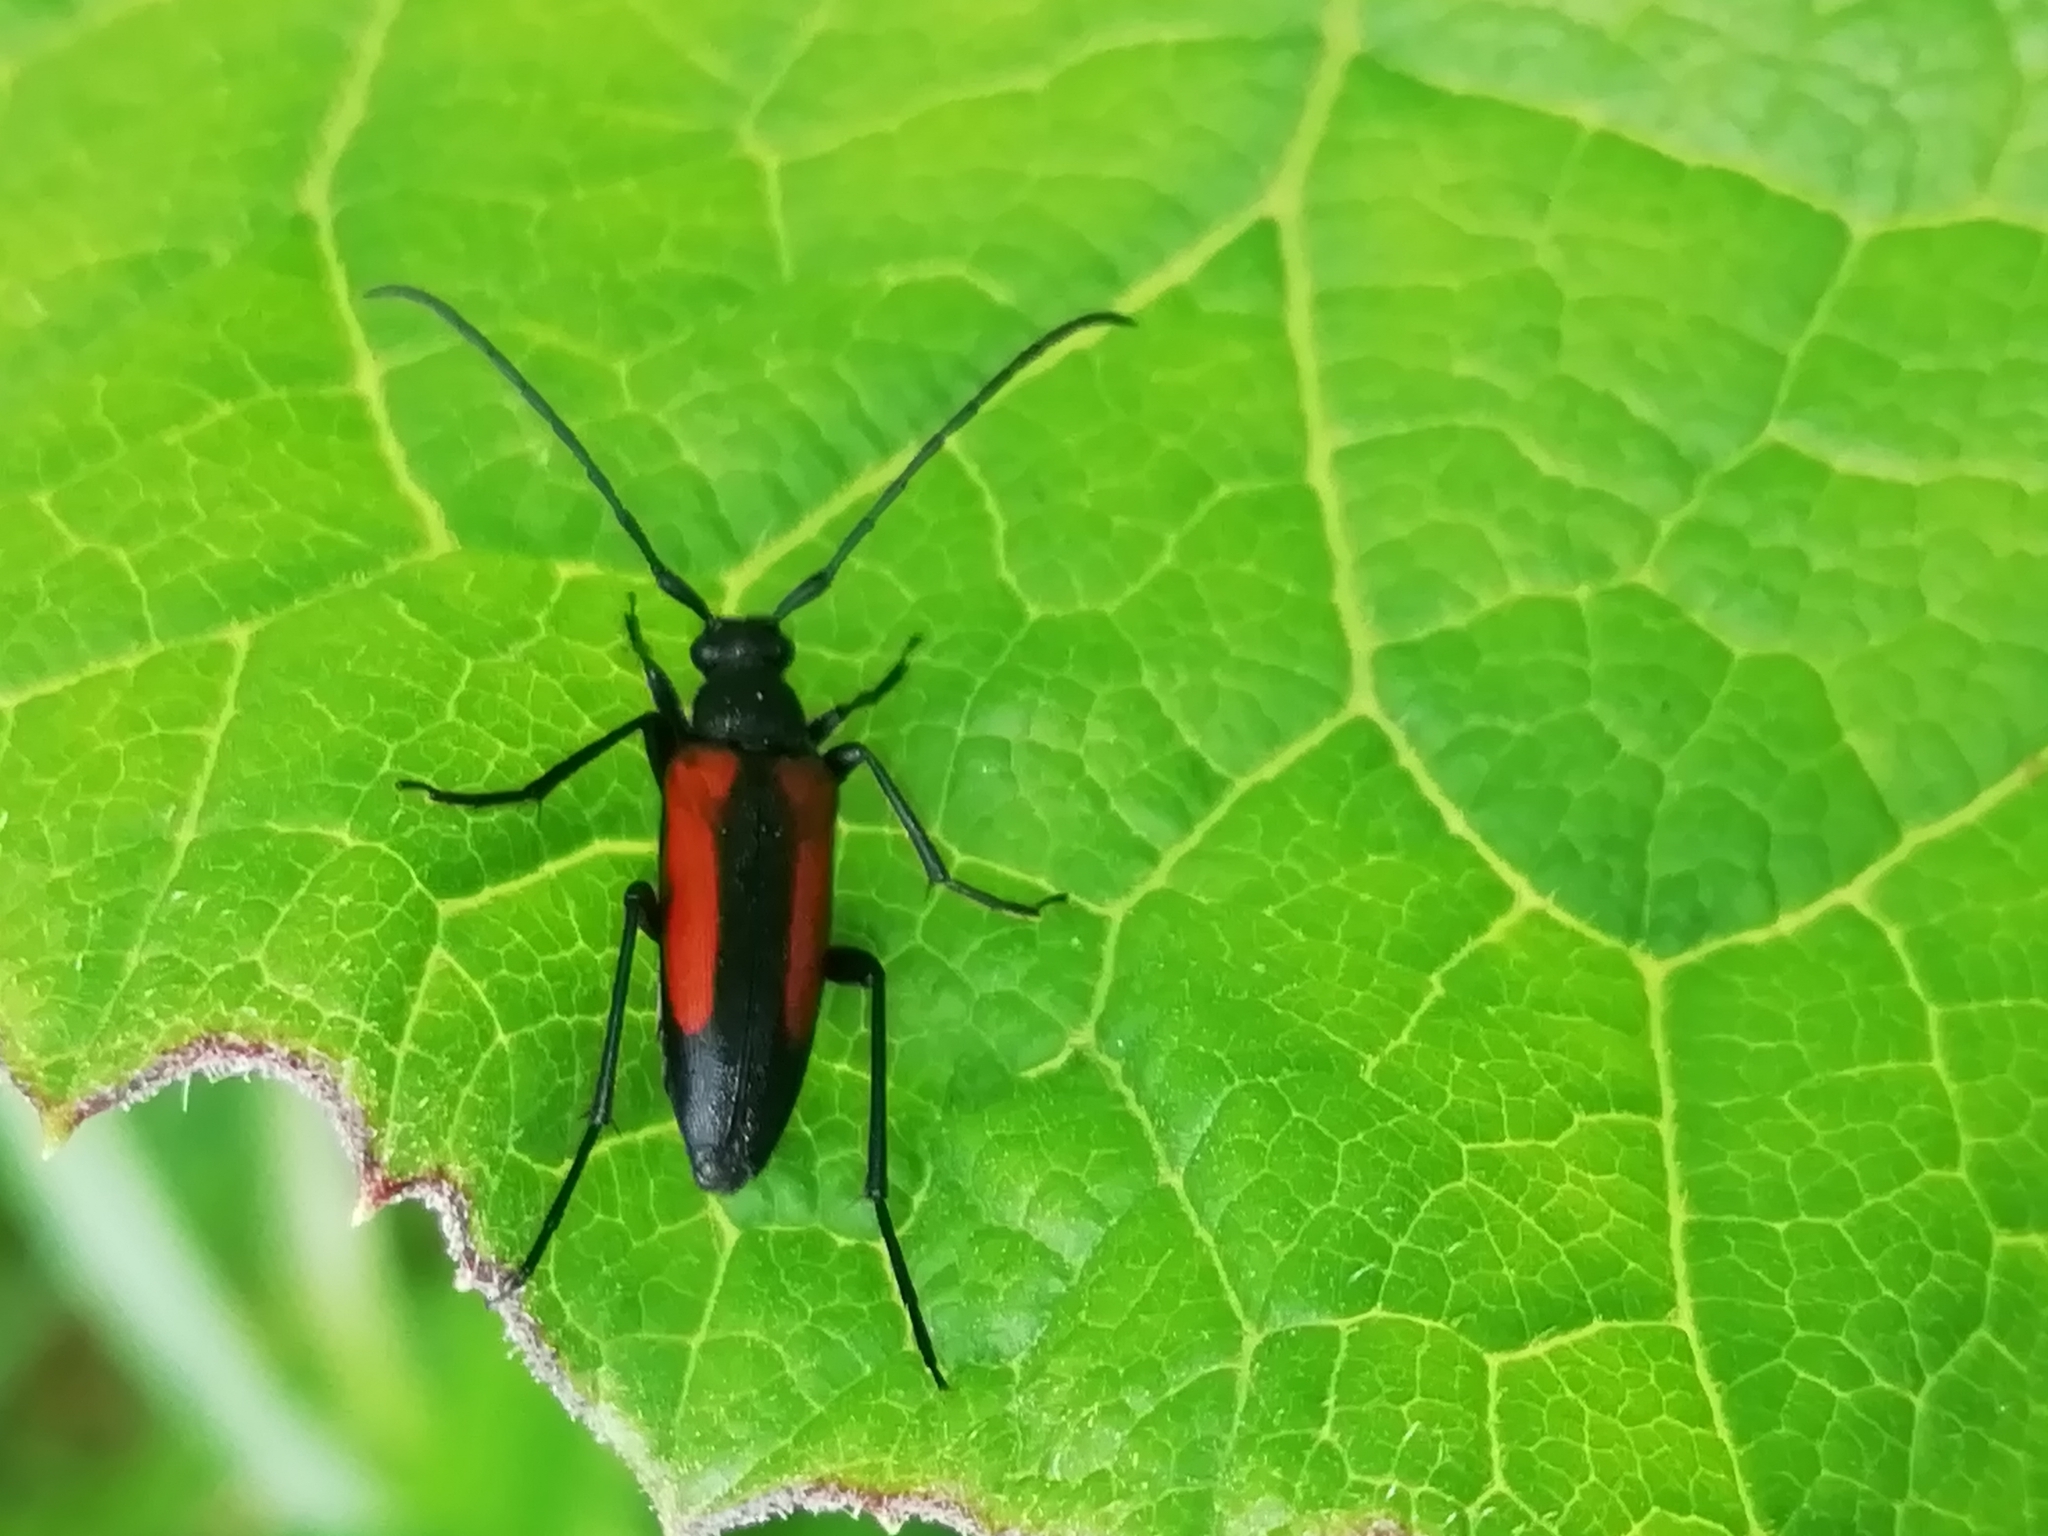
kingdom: Animalia
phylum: Arthropoda
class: Insecta
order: Coleoptera
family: Cerambycidae
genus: Stenurella
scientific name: Stenurella melanura
